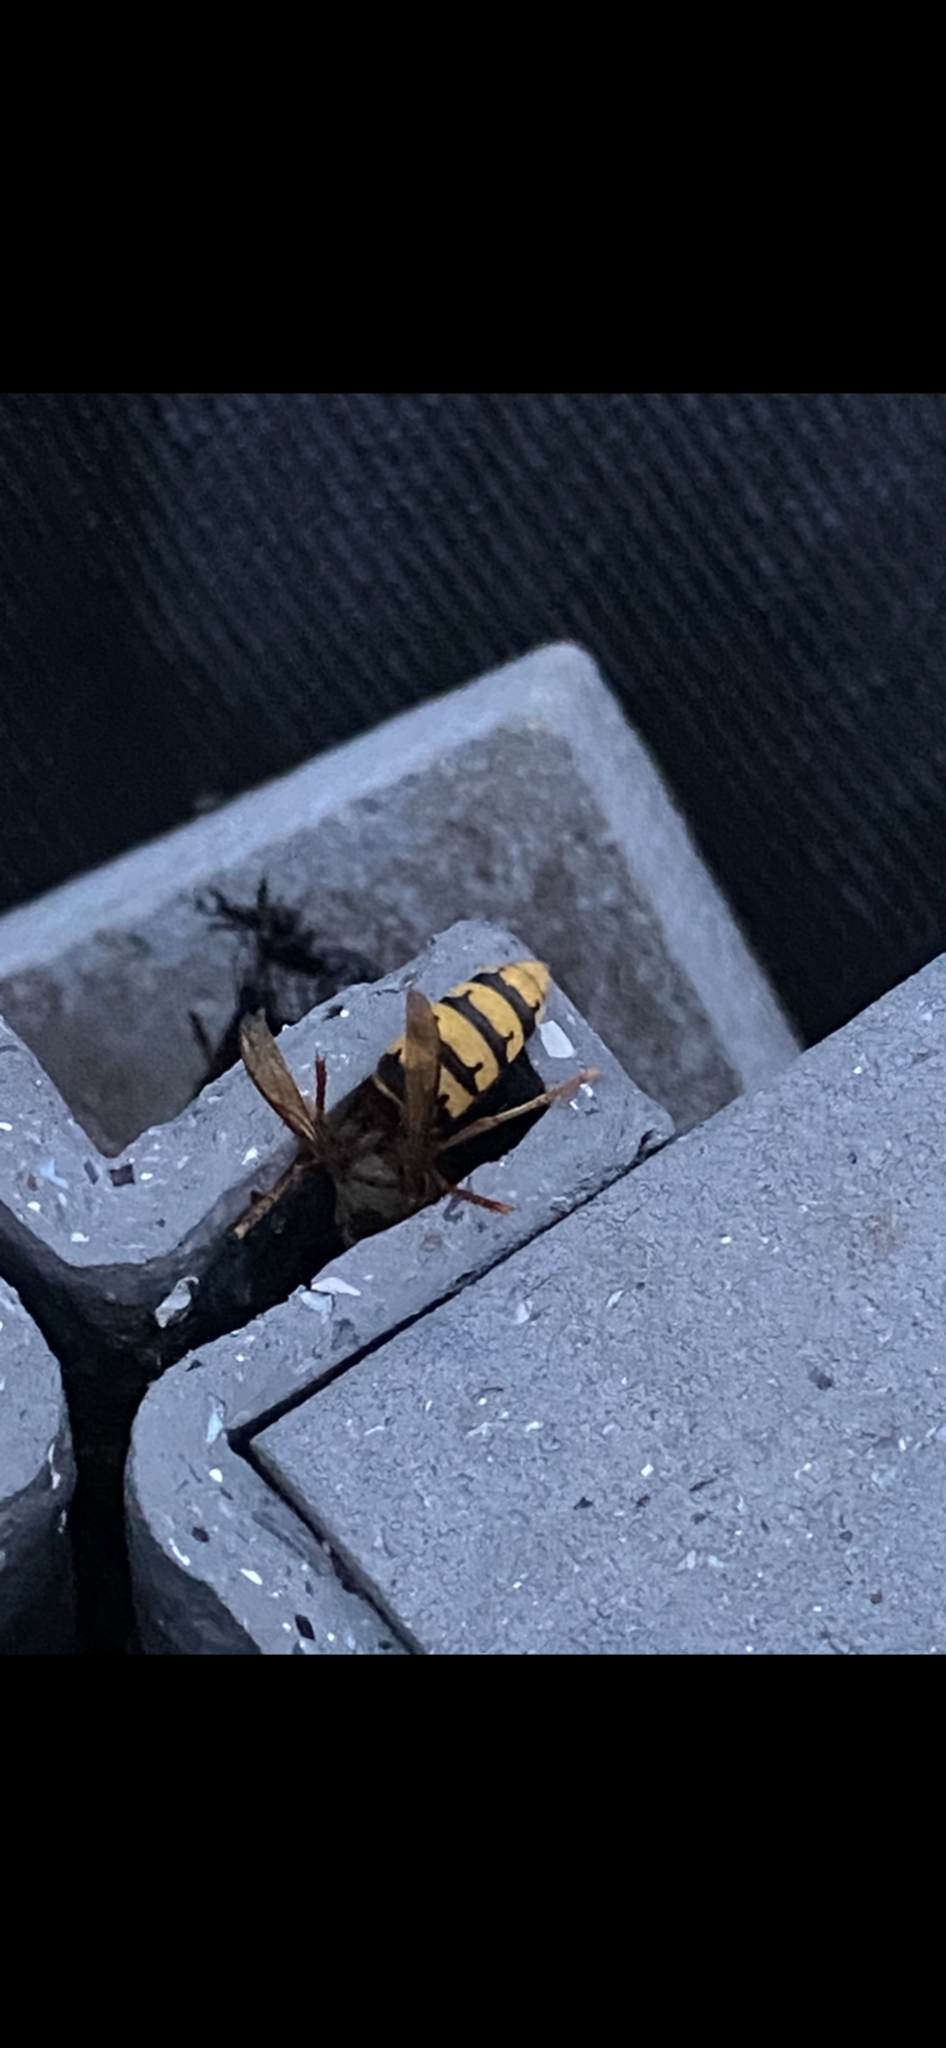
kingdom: Animalia
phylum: Arthropoda
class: Insecta
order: Hymenoptera
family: Vespidae
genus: Vespa
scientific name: Vespa crabro
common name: Hornet
